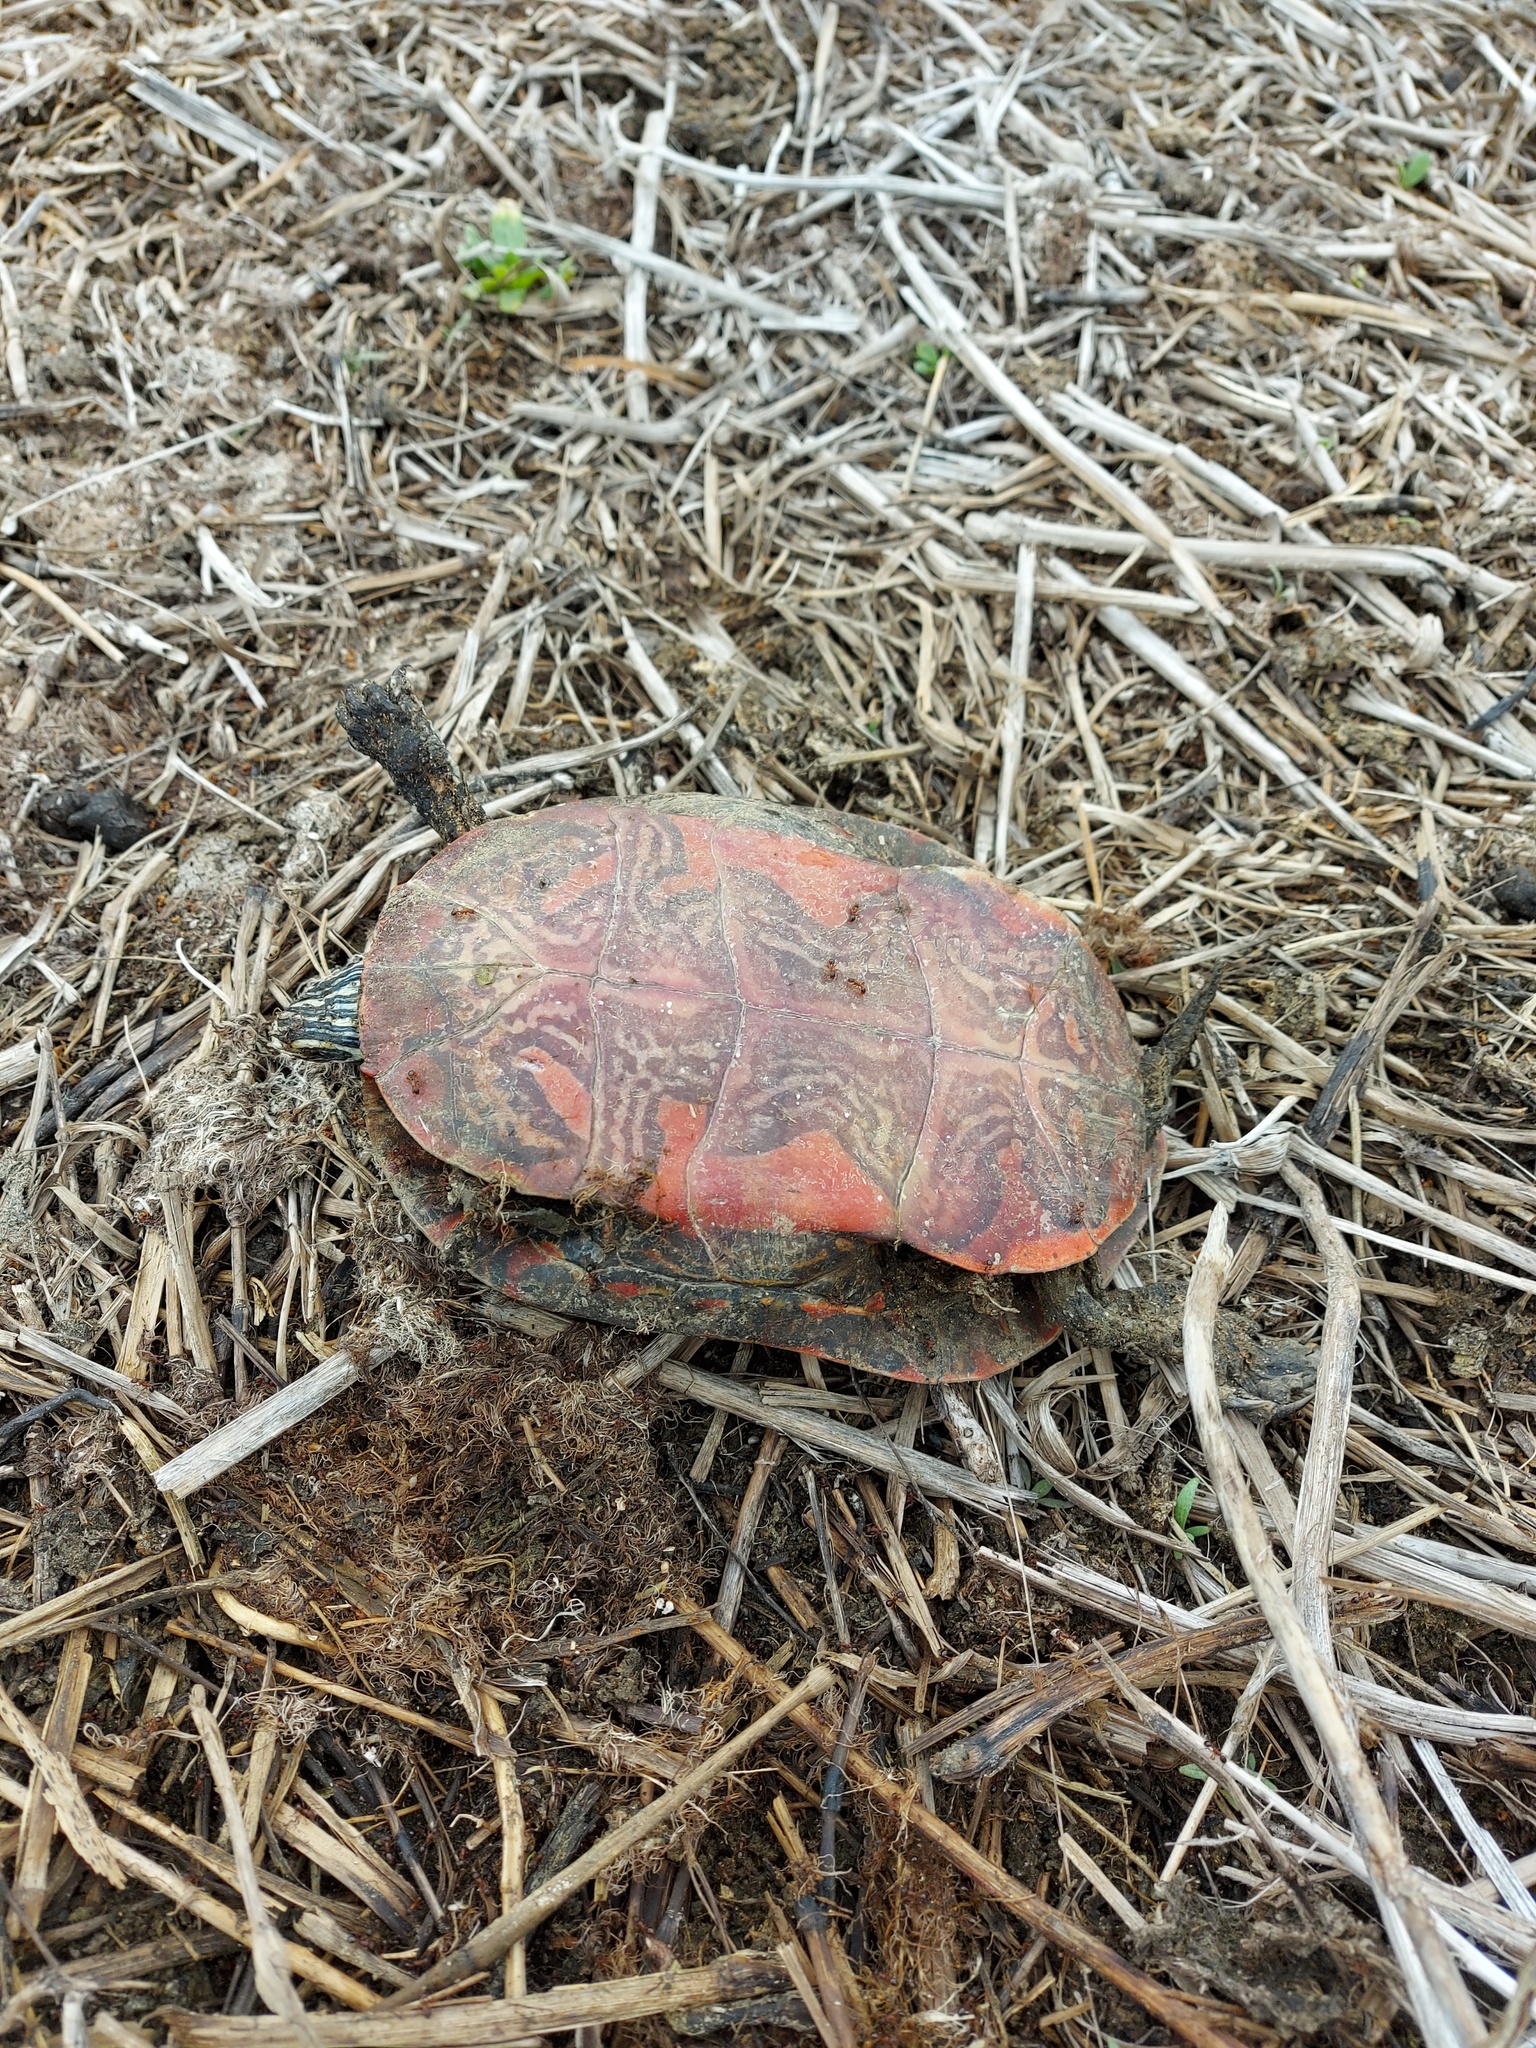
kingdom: Animalia
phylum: Chordata
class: Testudines
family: Emydidae
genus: Chrysemys
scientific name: Chrysemys picta
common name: Painted turtle
